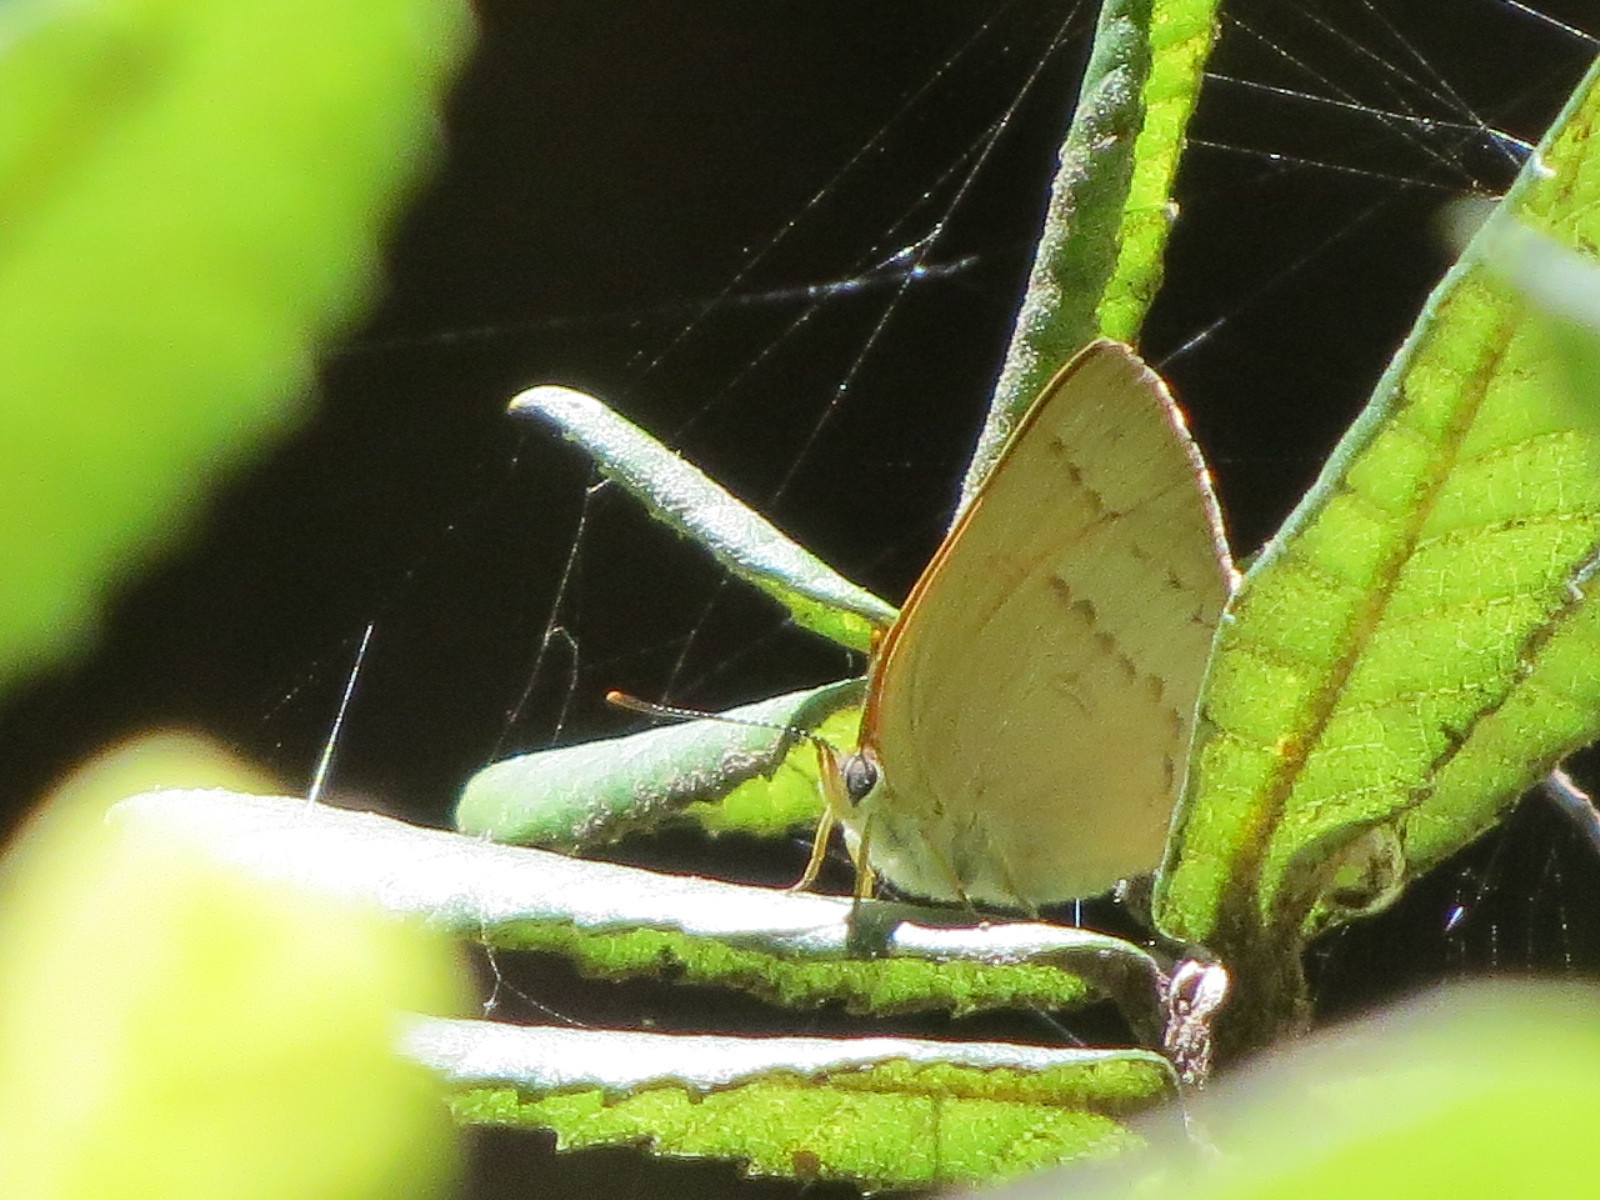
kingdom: Animalia
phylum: Arthropoda
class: Insecta
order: Lepidoptera
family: Lycaenidae
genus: Habrodais
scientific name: Habrodais grunus
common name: Golden hairstreak
